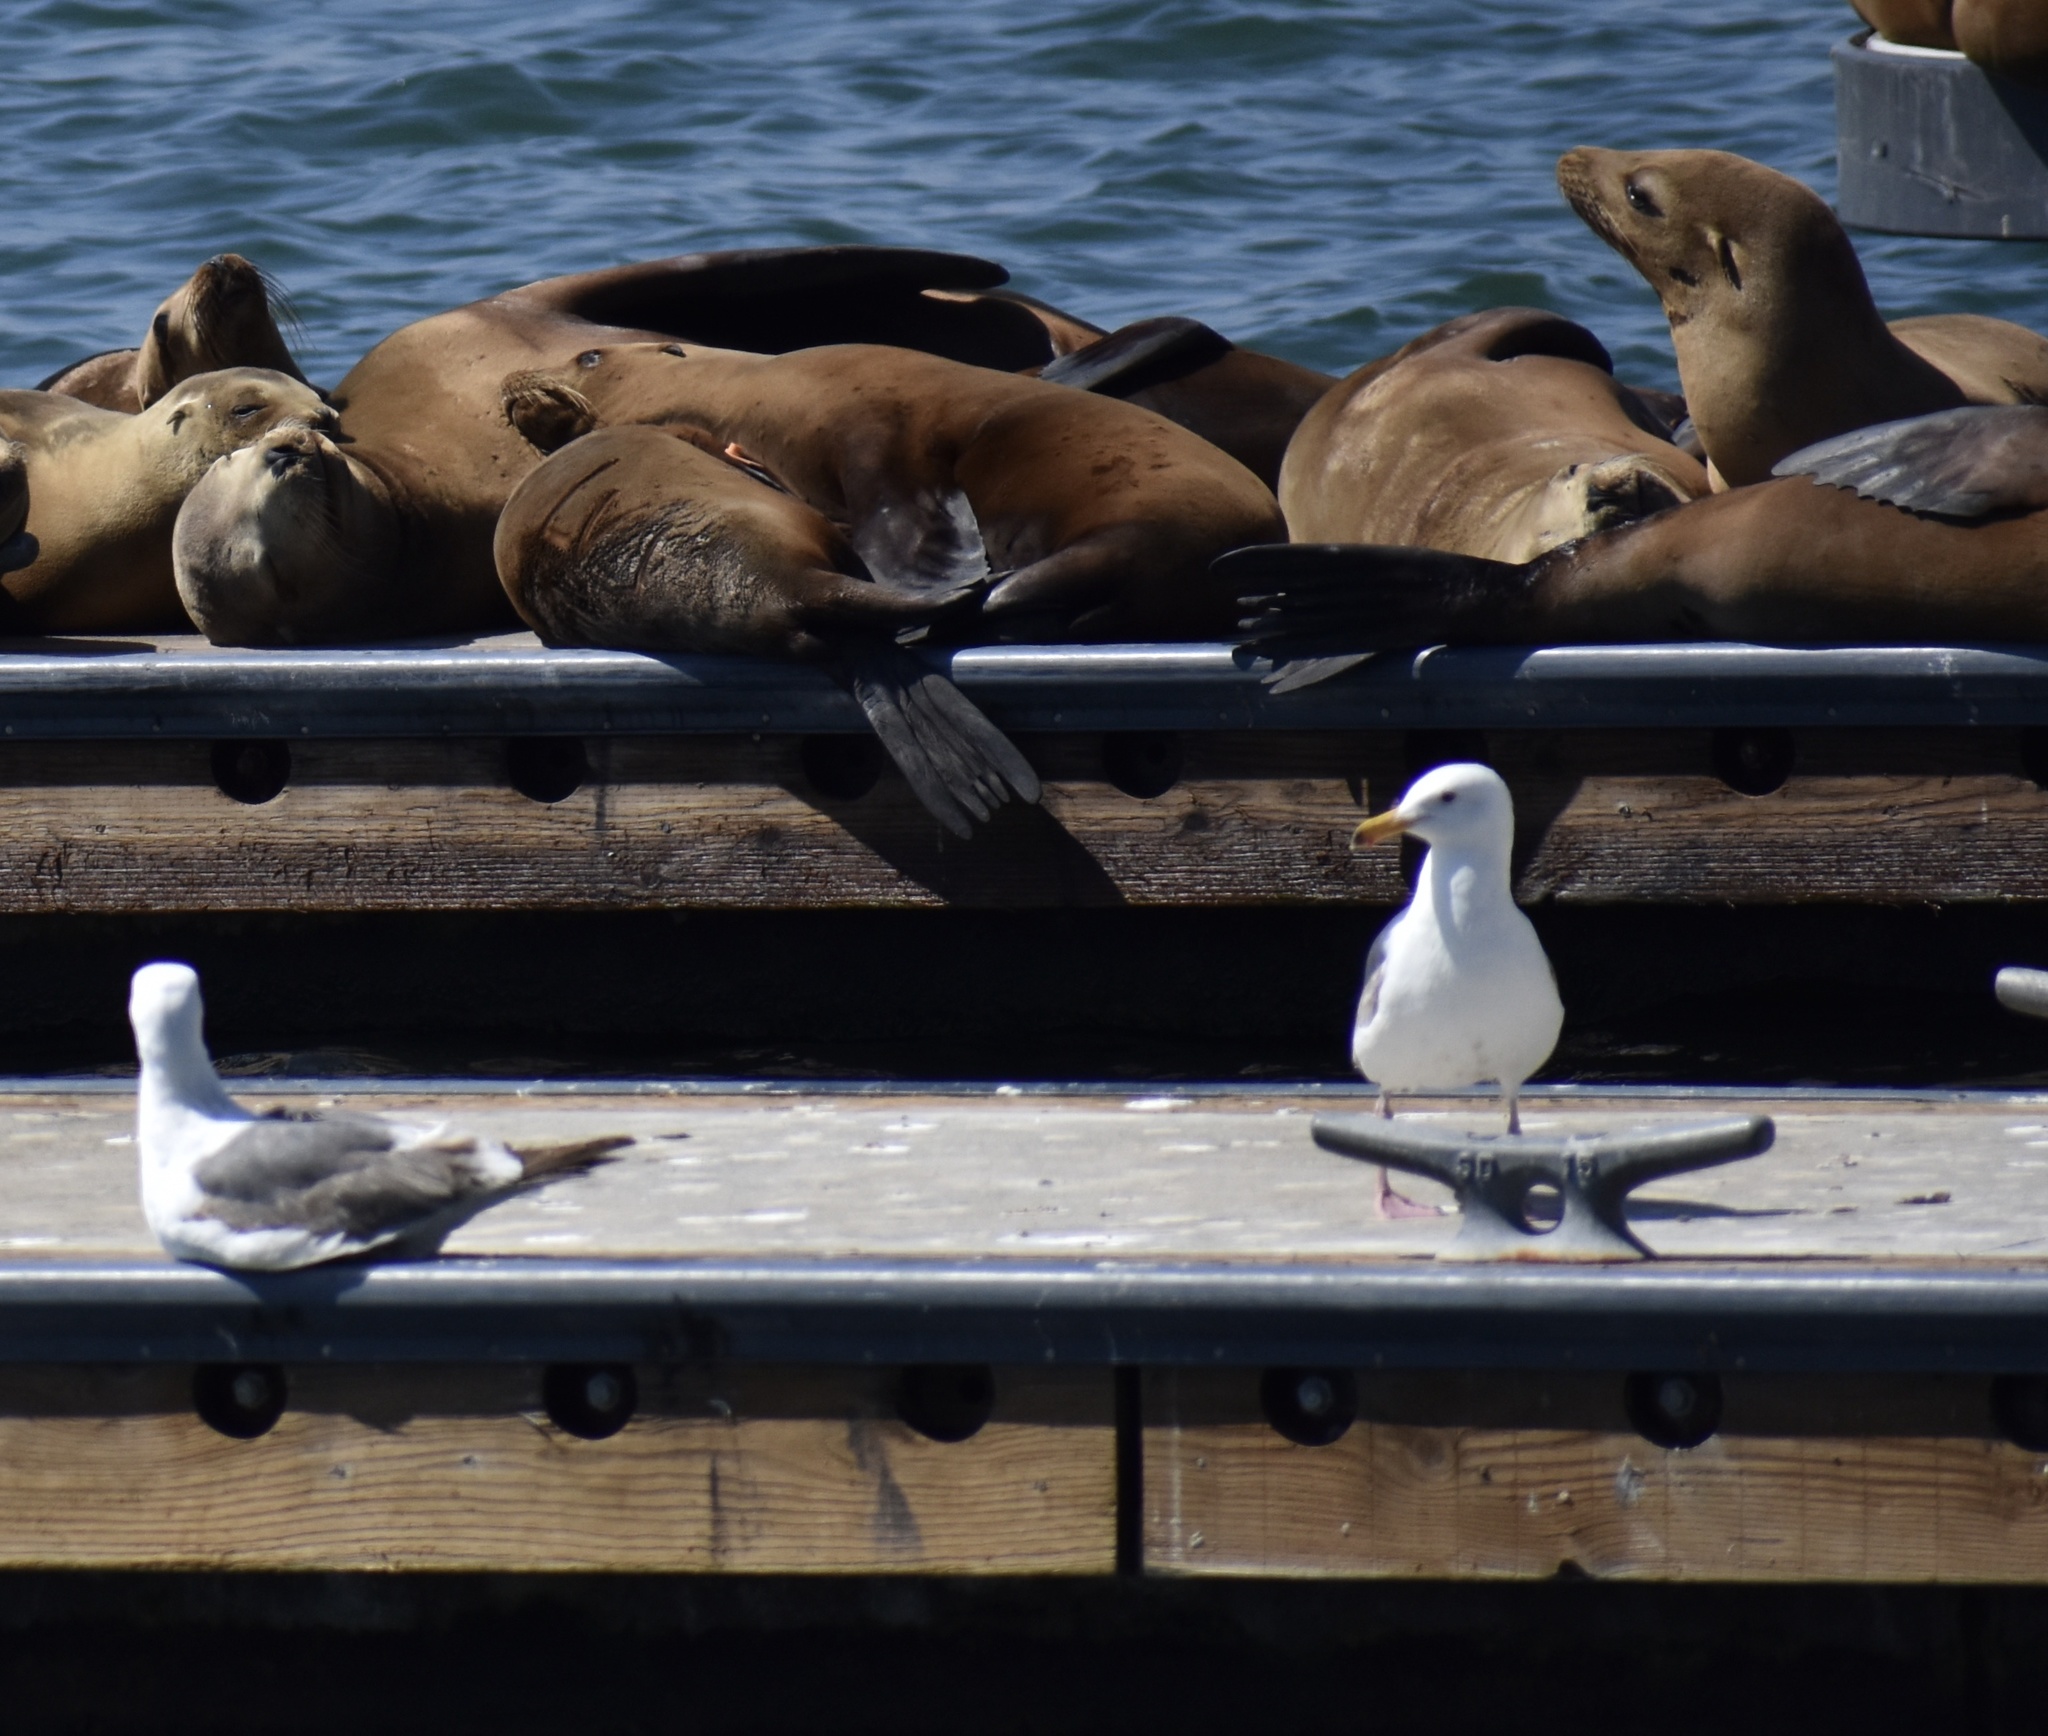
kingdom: Animalia
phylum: Chordata
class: Aves
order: Charadriiformes
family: Laridae
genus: Larus
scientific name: Larus occidentalis
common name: Western gull
